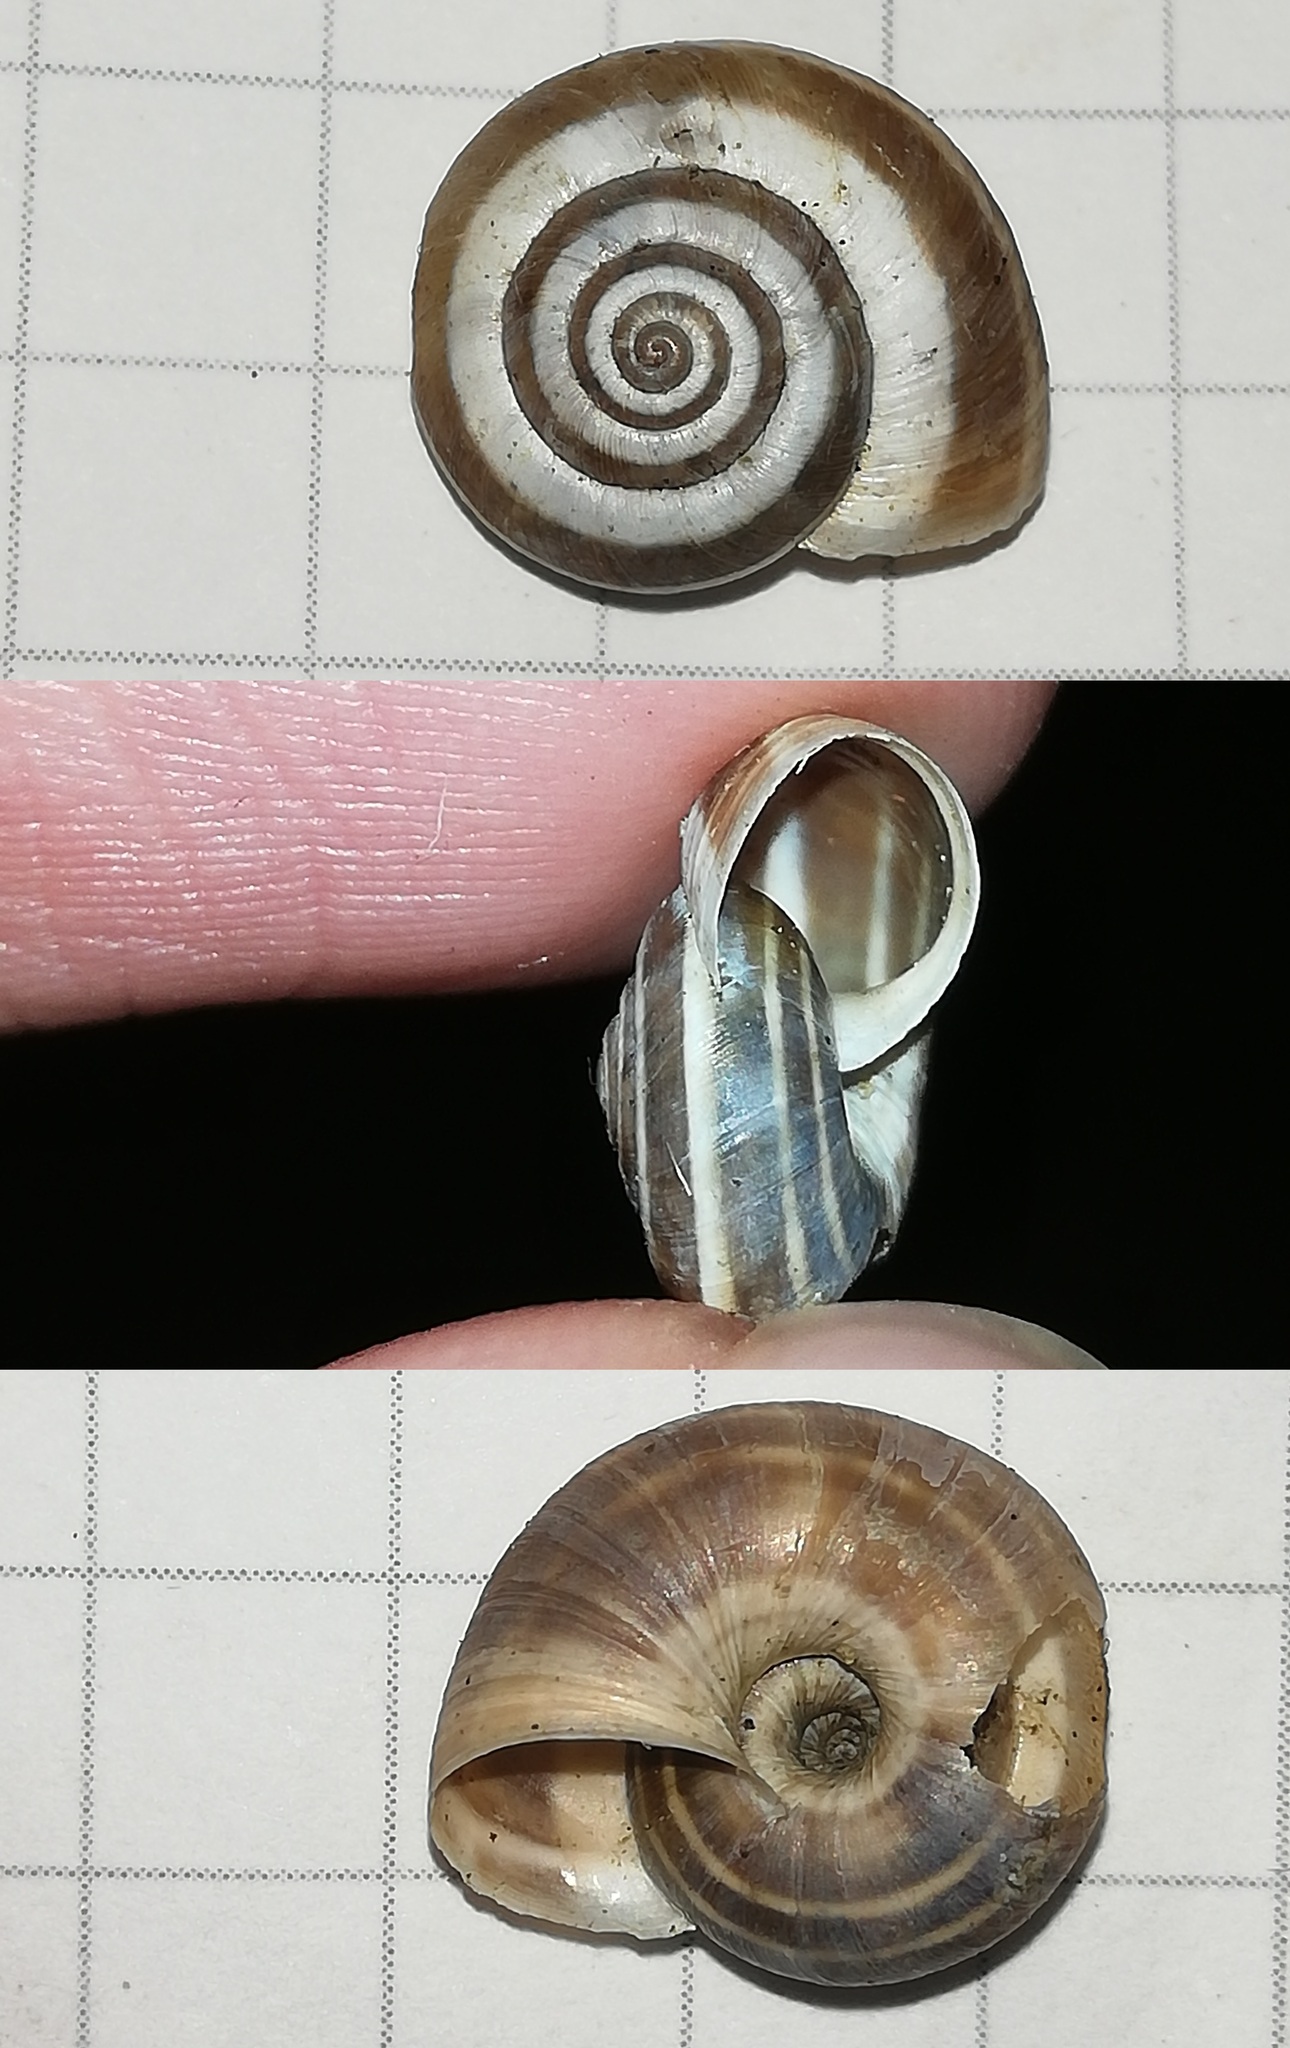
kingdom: Animalia
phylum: Mollusca
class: Gastropoda
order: Stylommatophora
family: Geomitridae
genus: Cernuella
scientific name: Cernuella neglecta
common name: Neglected dune snail
